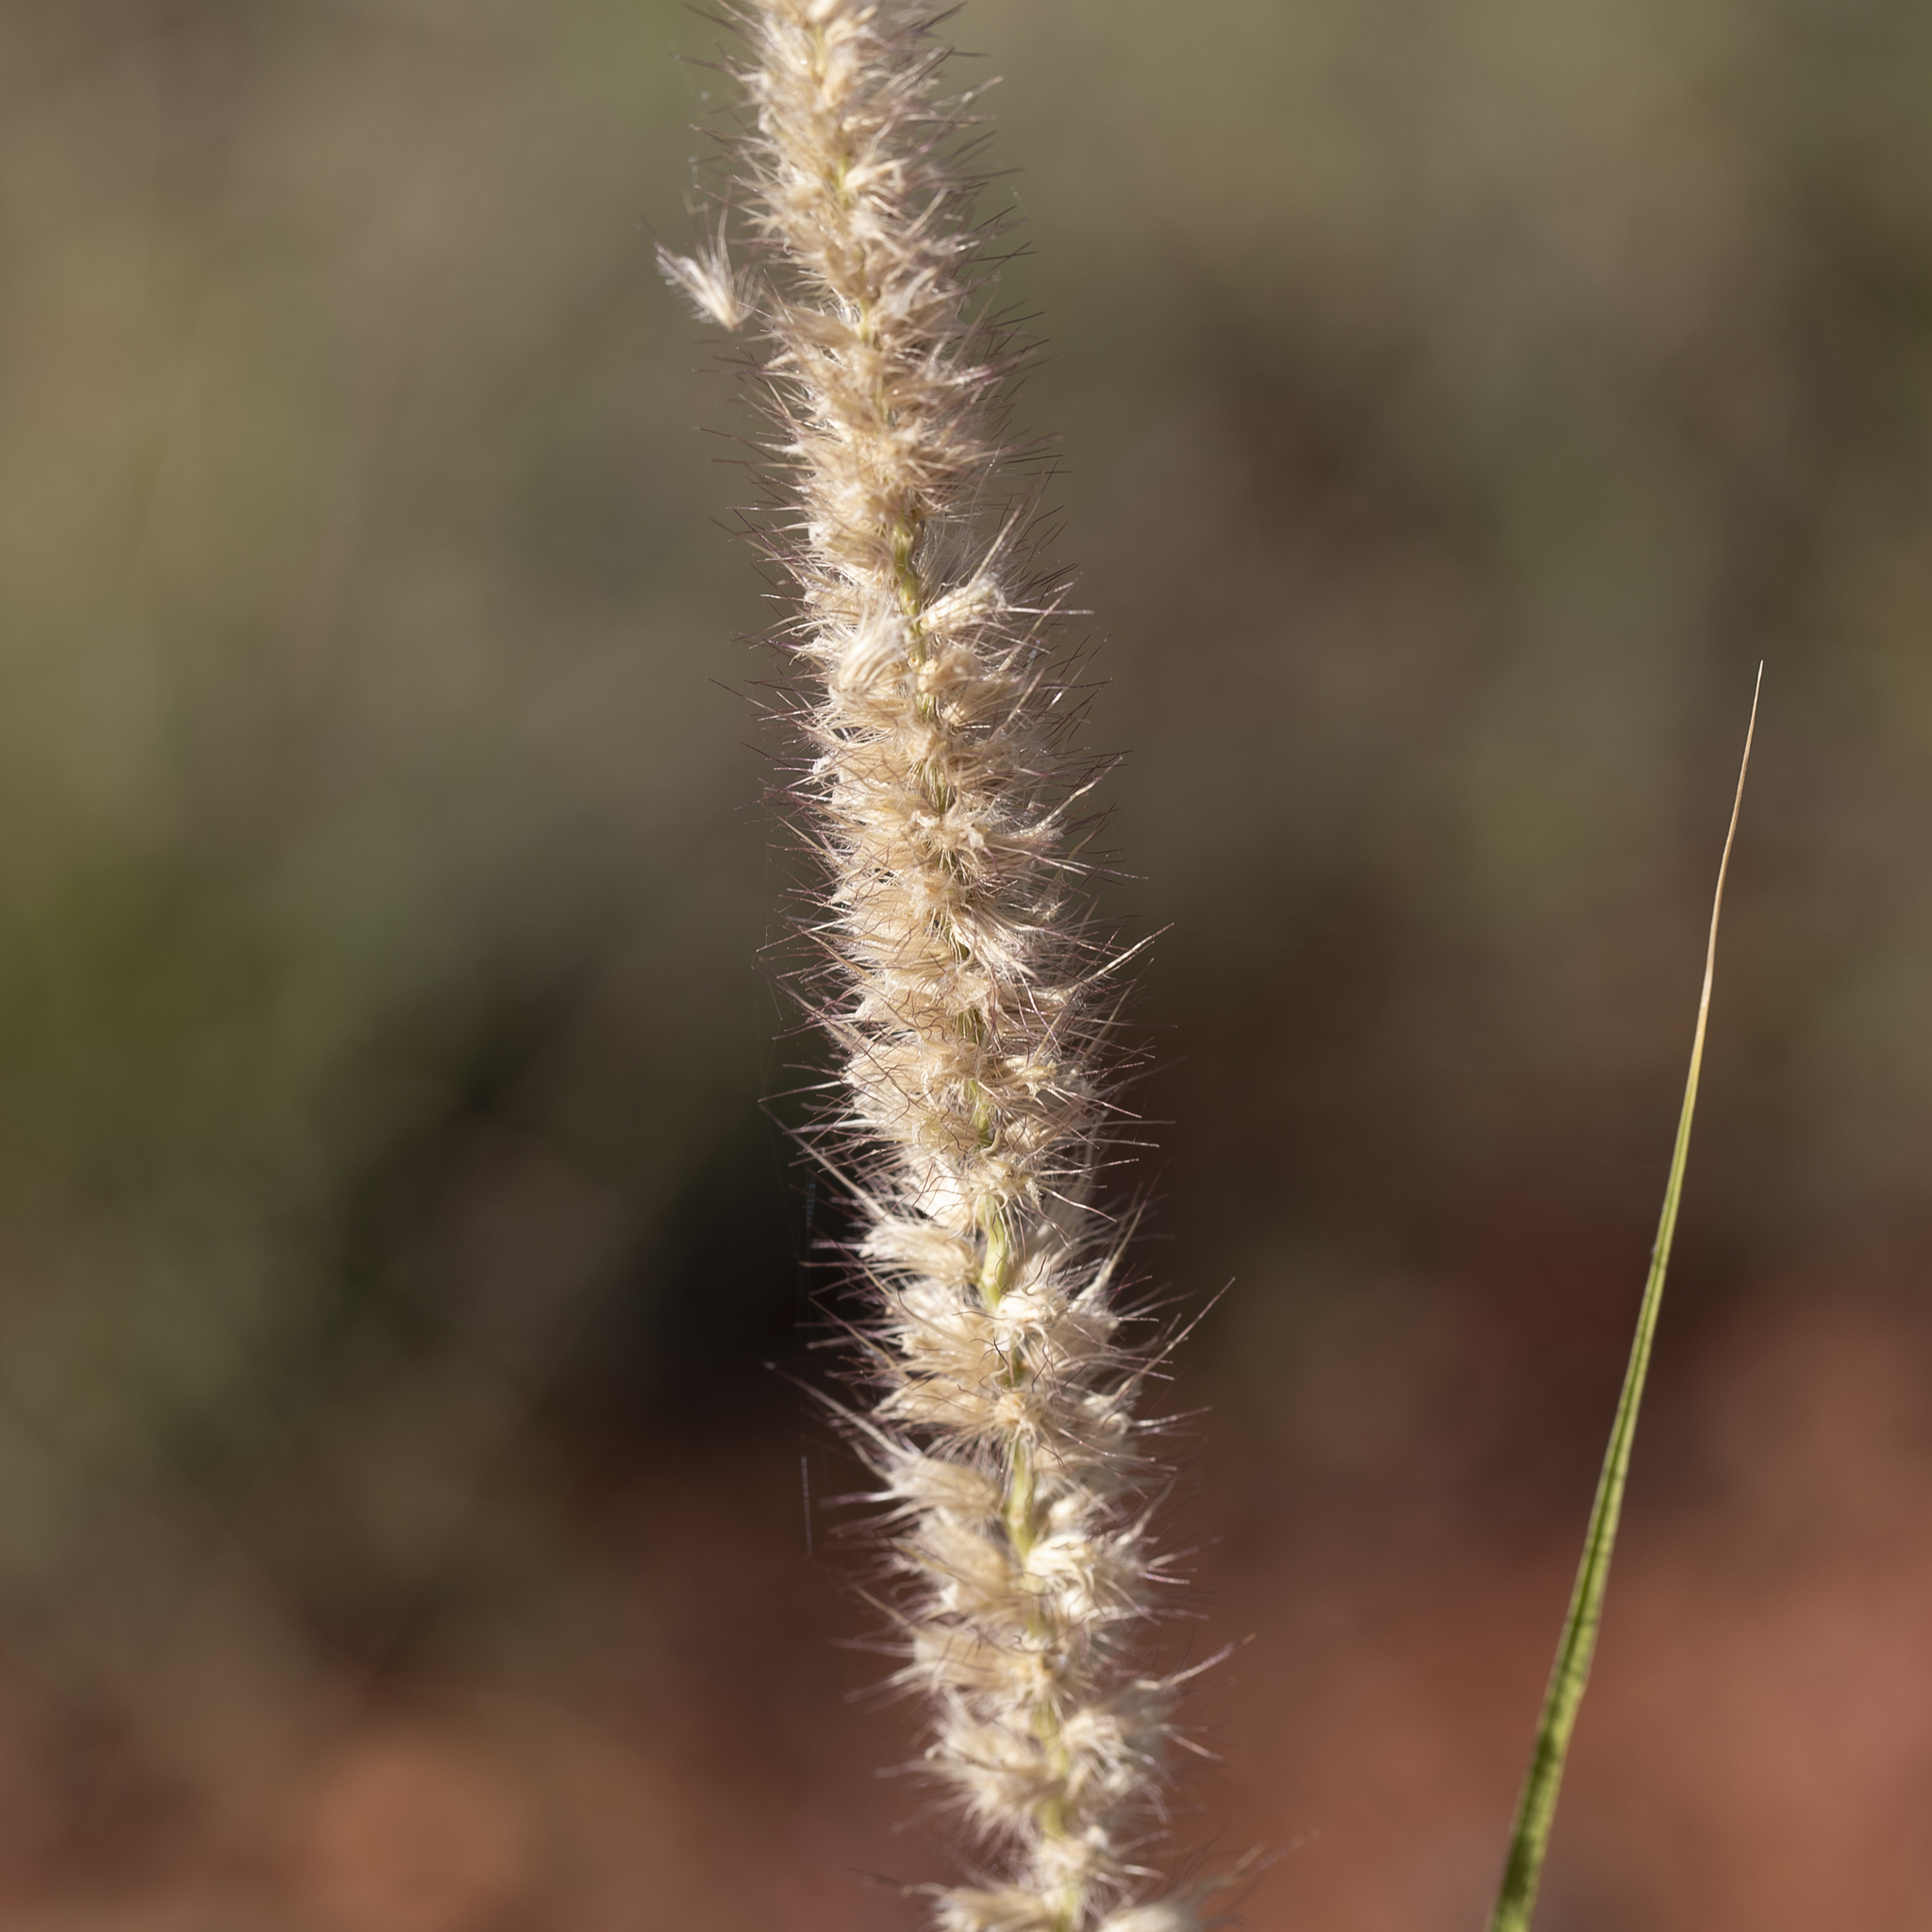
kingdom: Plantae
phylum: Tracheophyta
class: Liliopsida
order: Poales
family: Poaceae
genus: Cenchrus
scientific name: Cenchrus ciliaris
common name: Buffelgrass
